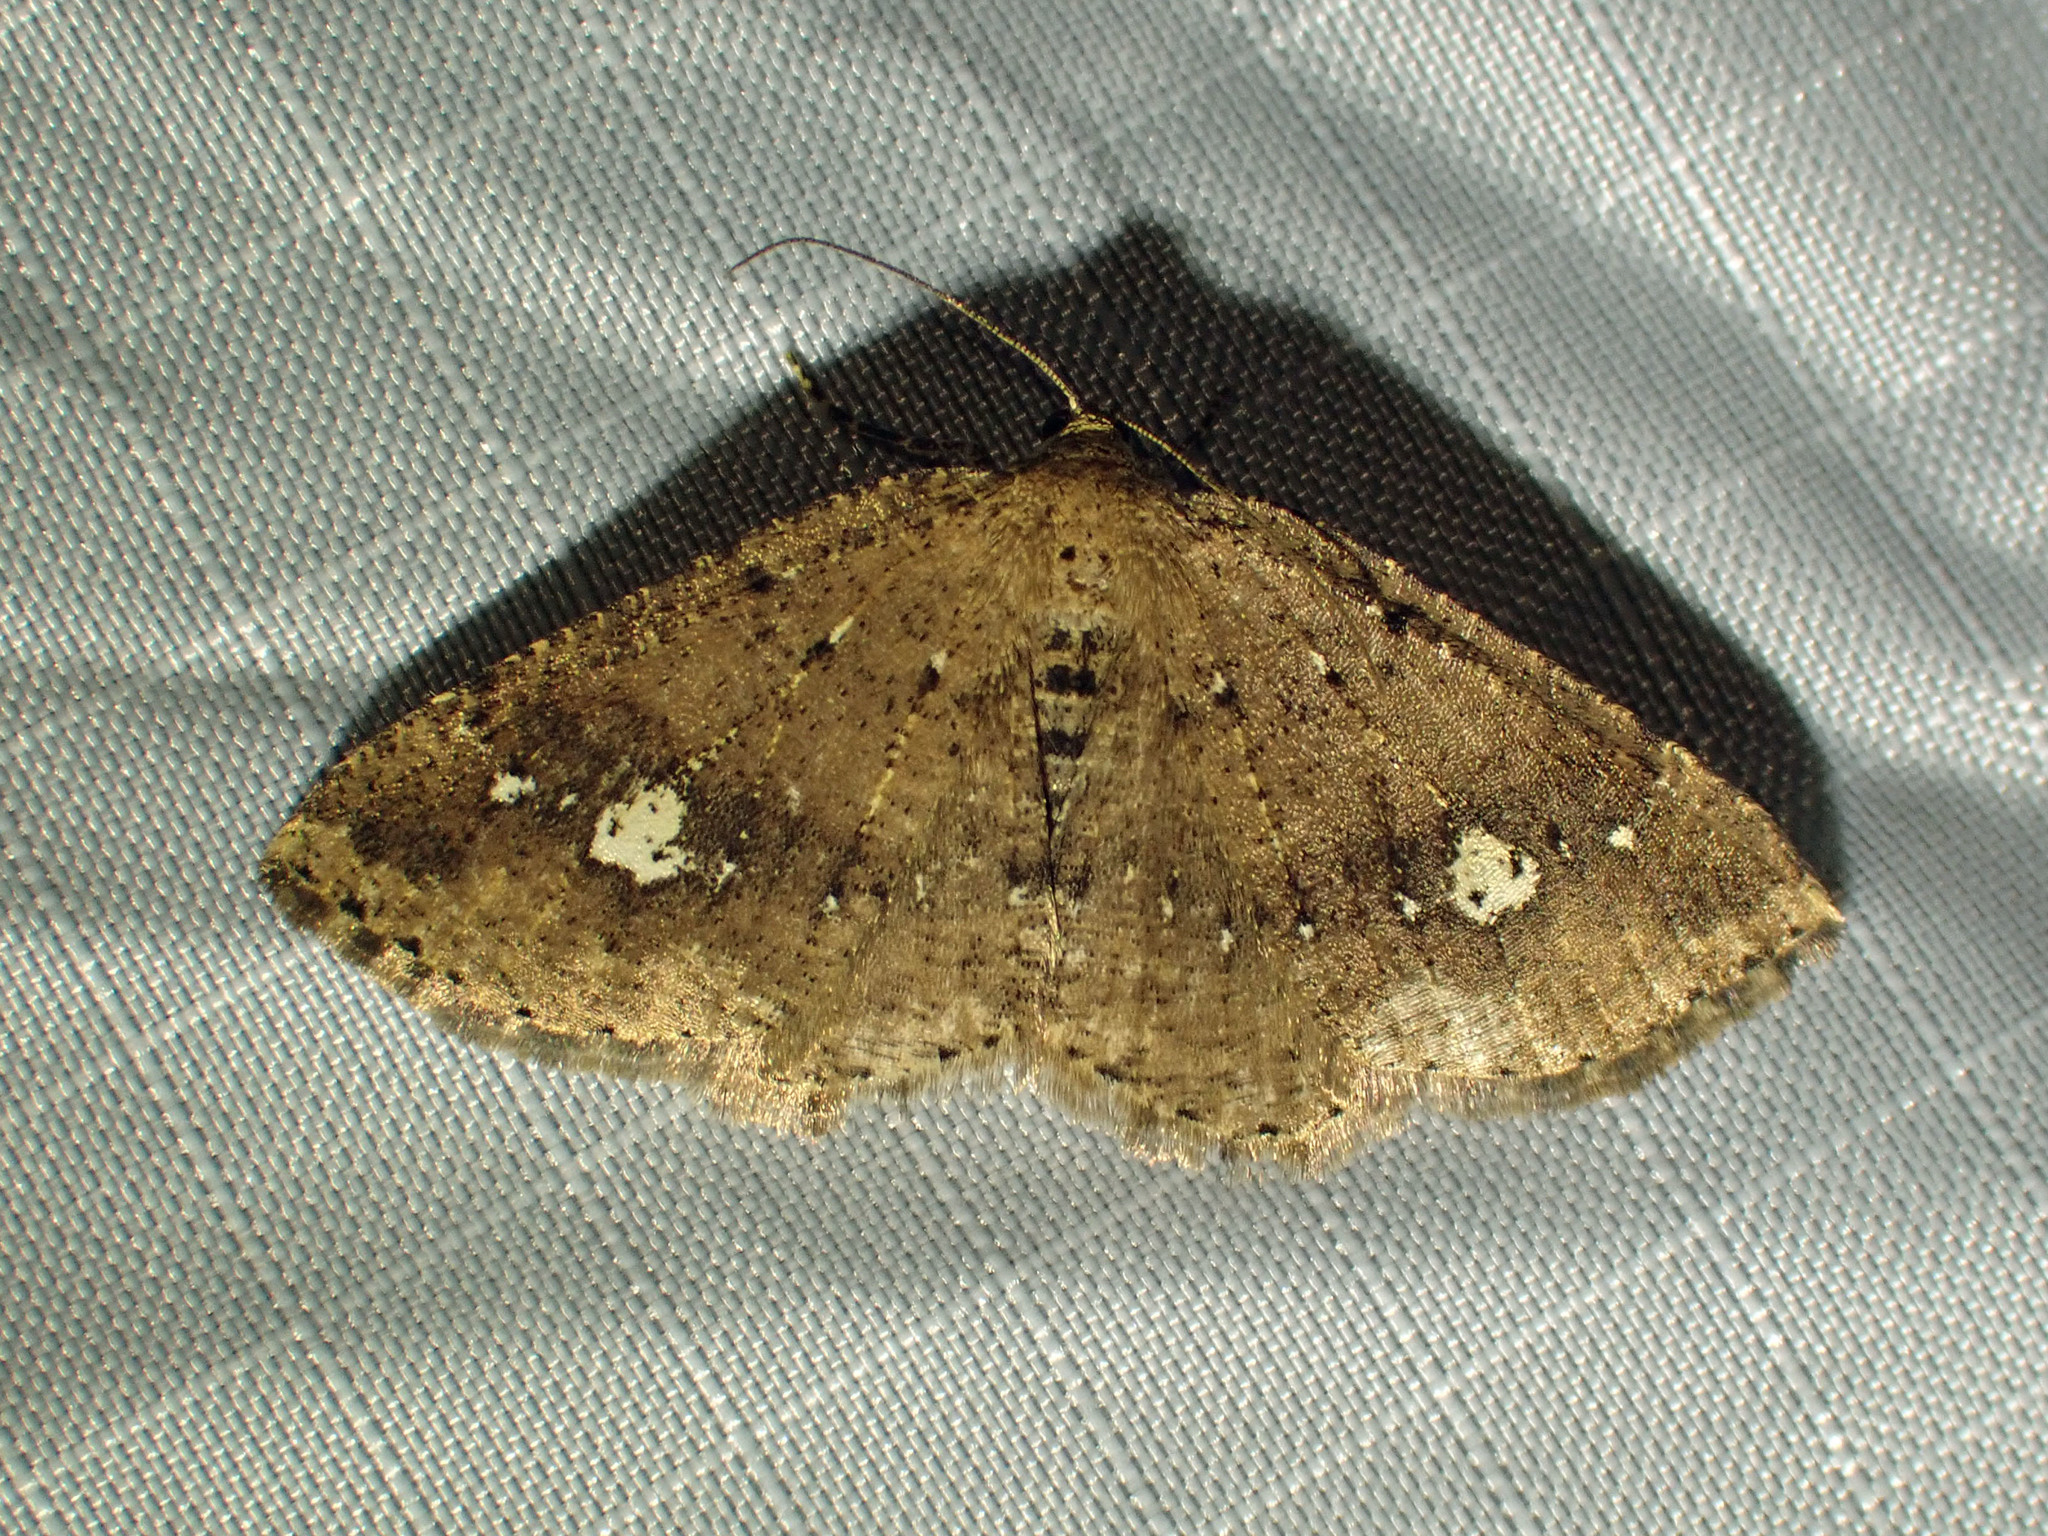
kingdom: Animalia
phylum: Arthropoda
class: Insecta
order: Lepidoptera
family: Geometridae
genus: Homochlodes
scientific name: Homochlodes fritillaria
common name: Pale homochlodes
